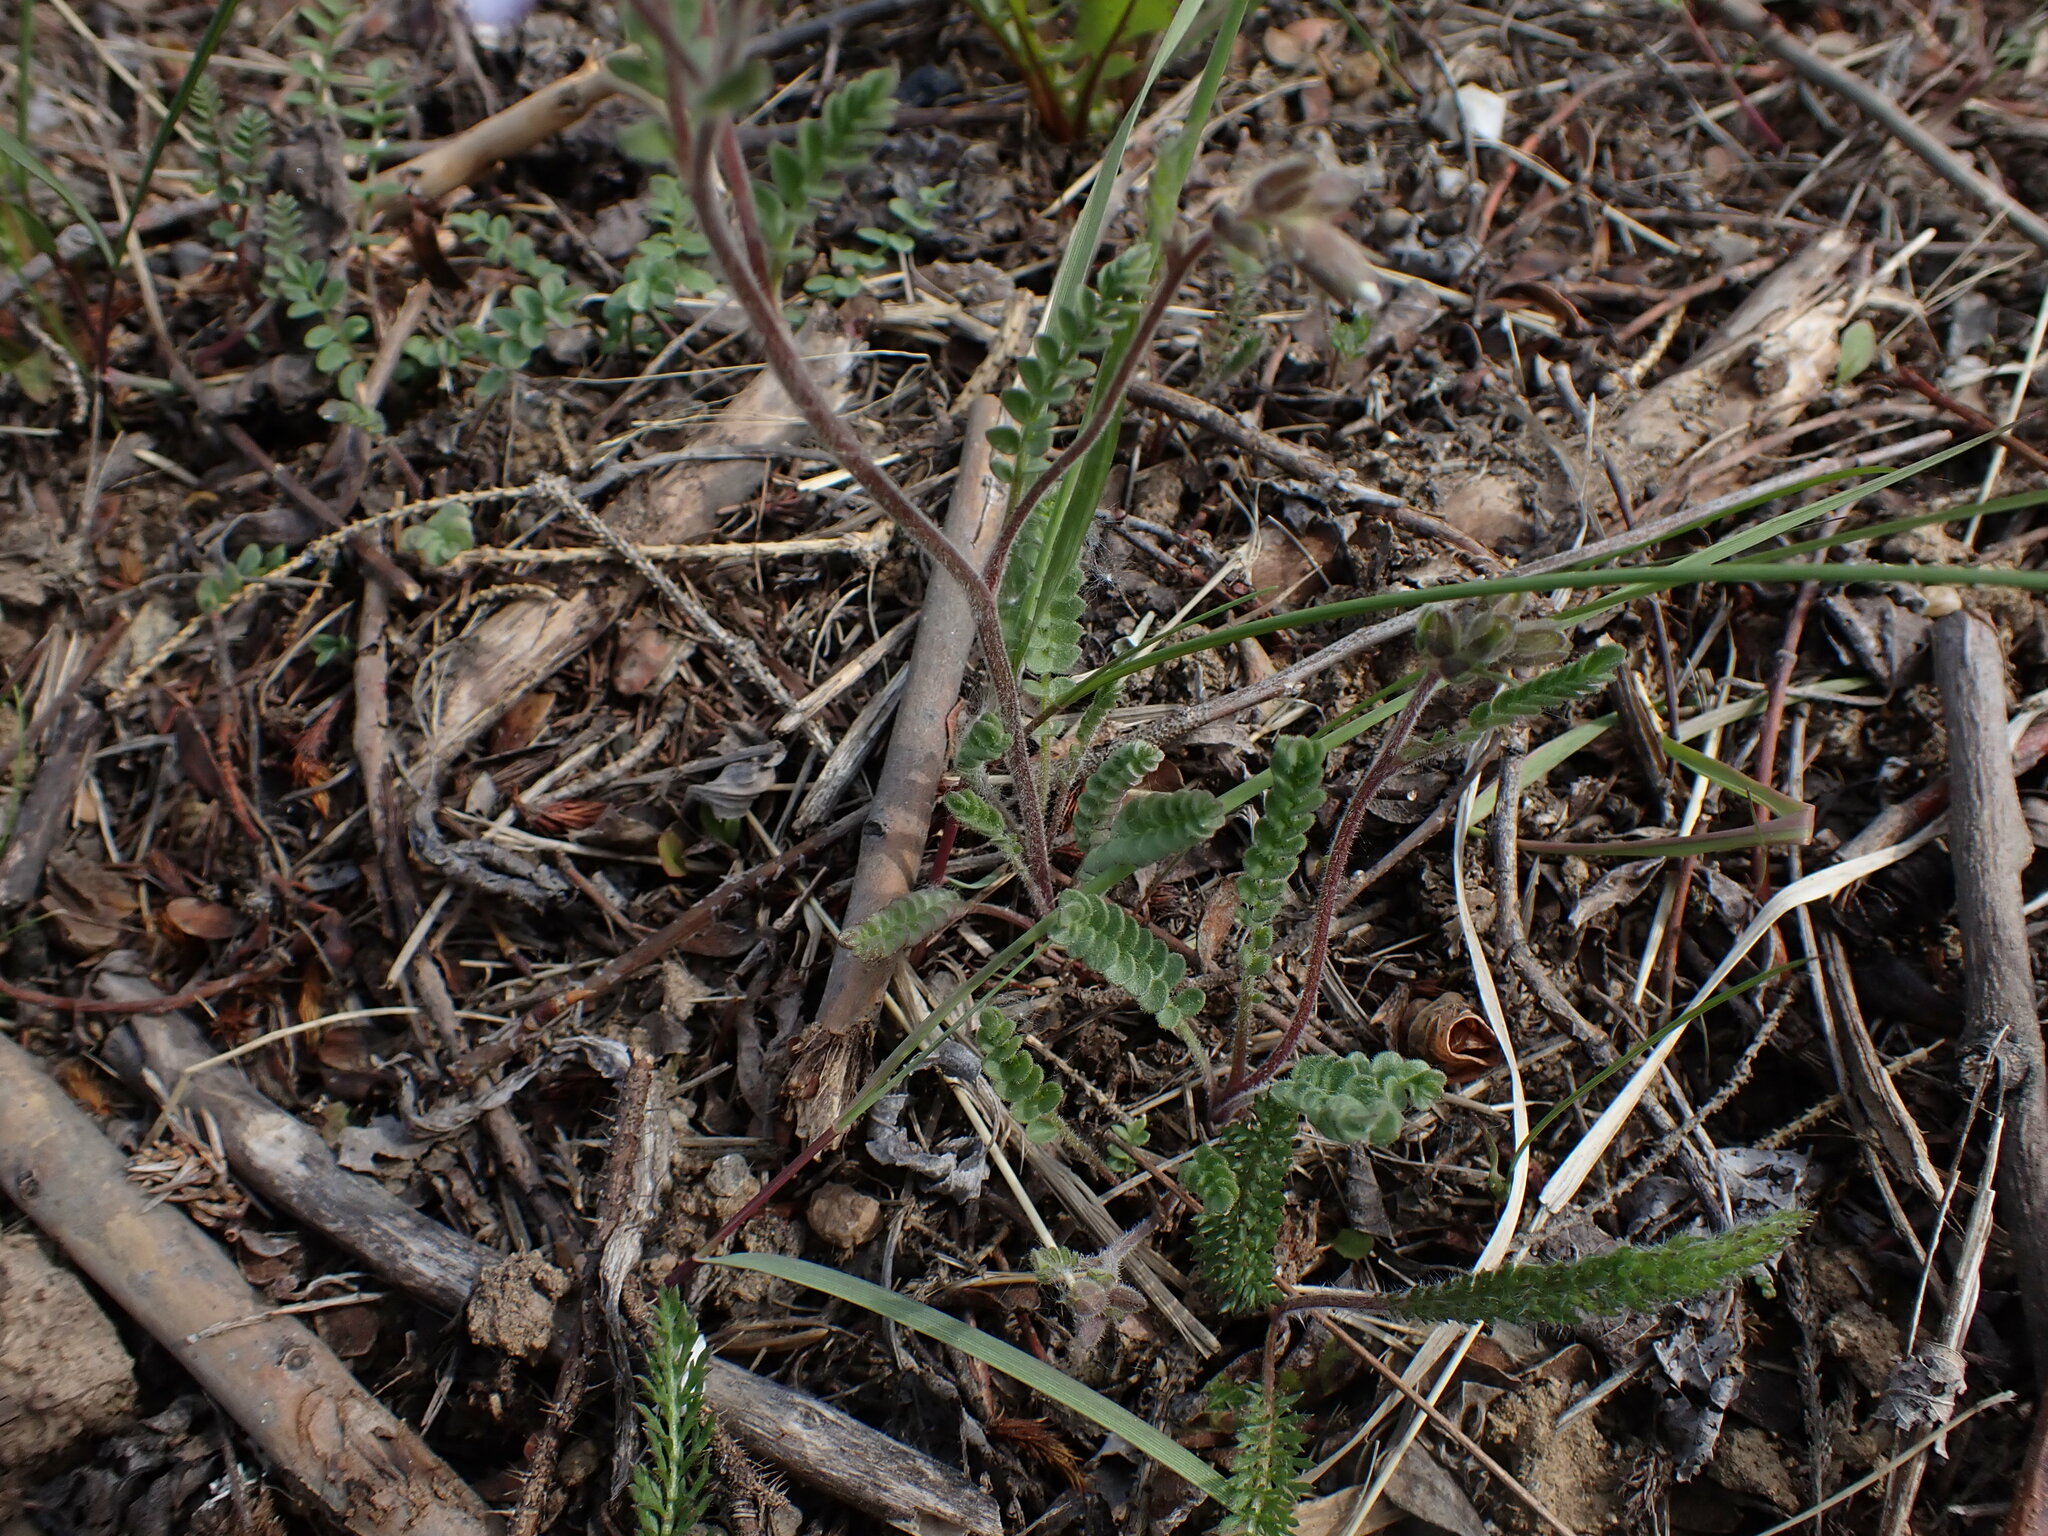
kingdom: Plantae
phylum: Tracheophyta
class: Magnoliopsida
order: Ericales
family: Polemoniaceae
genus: Polemonium
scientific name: Polemonium pulcherrimum
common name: Short jacob's-ladder
